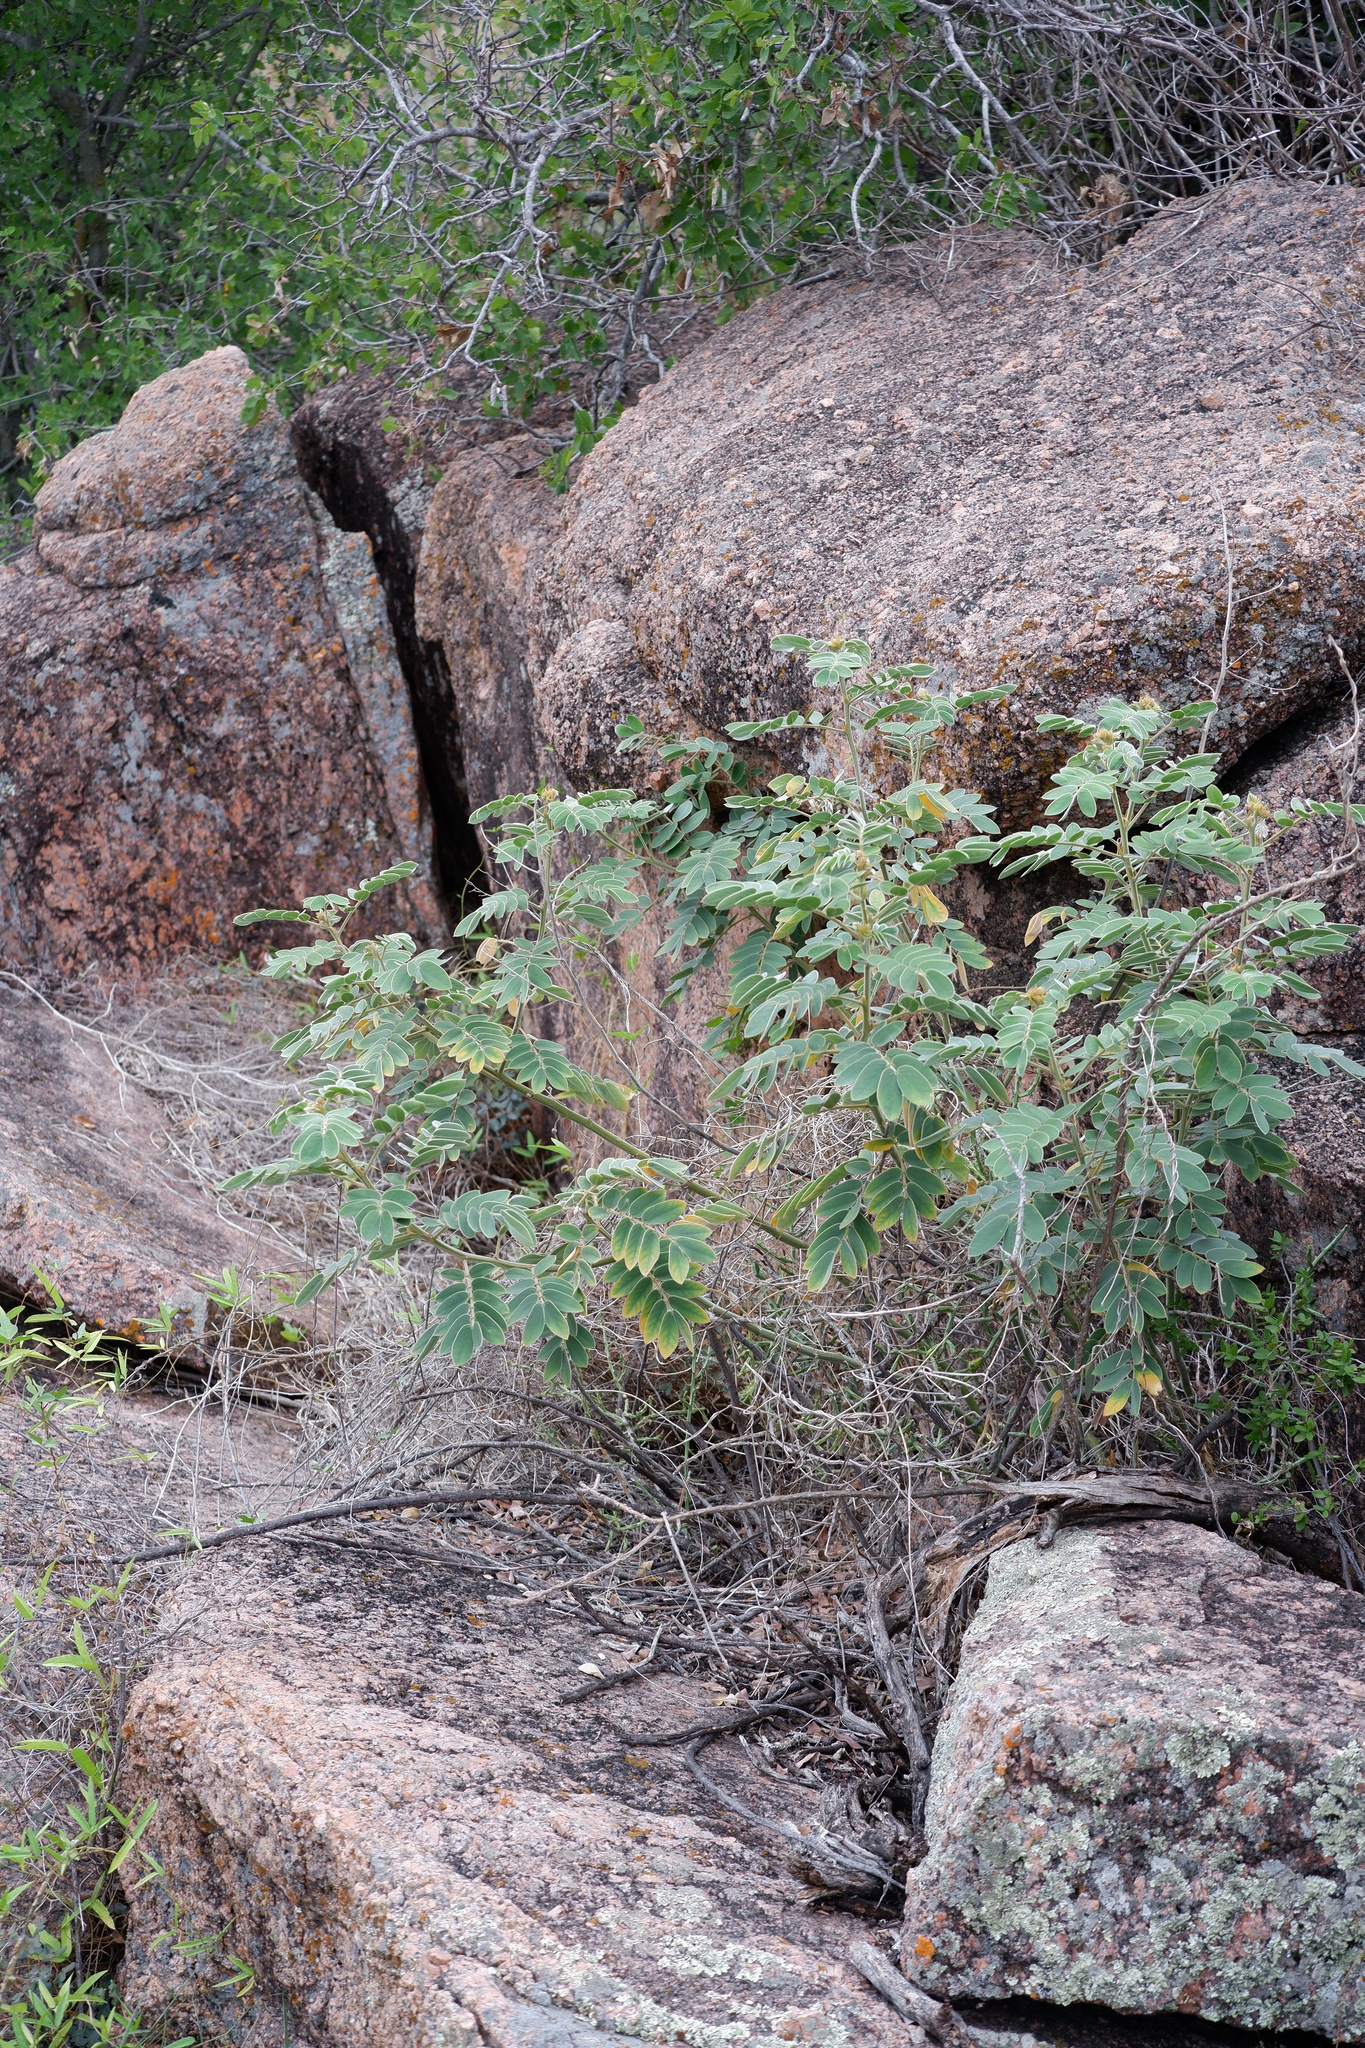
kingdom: Plantae
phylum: Tracheophyta
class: Magnoliopsida
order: Fabales
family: Fabaceae
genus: Senna
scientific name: Senna lindheimeriana
